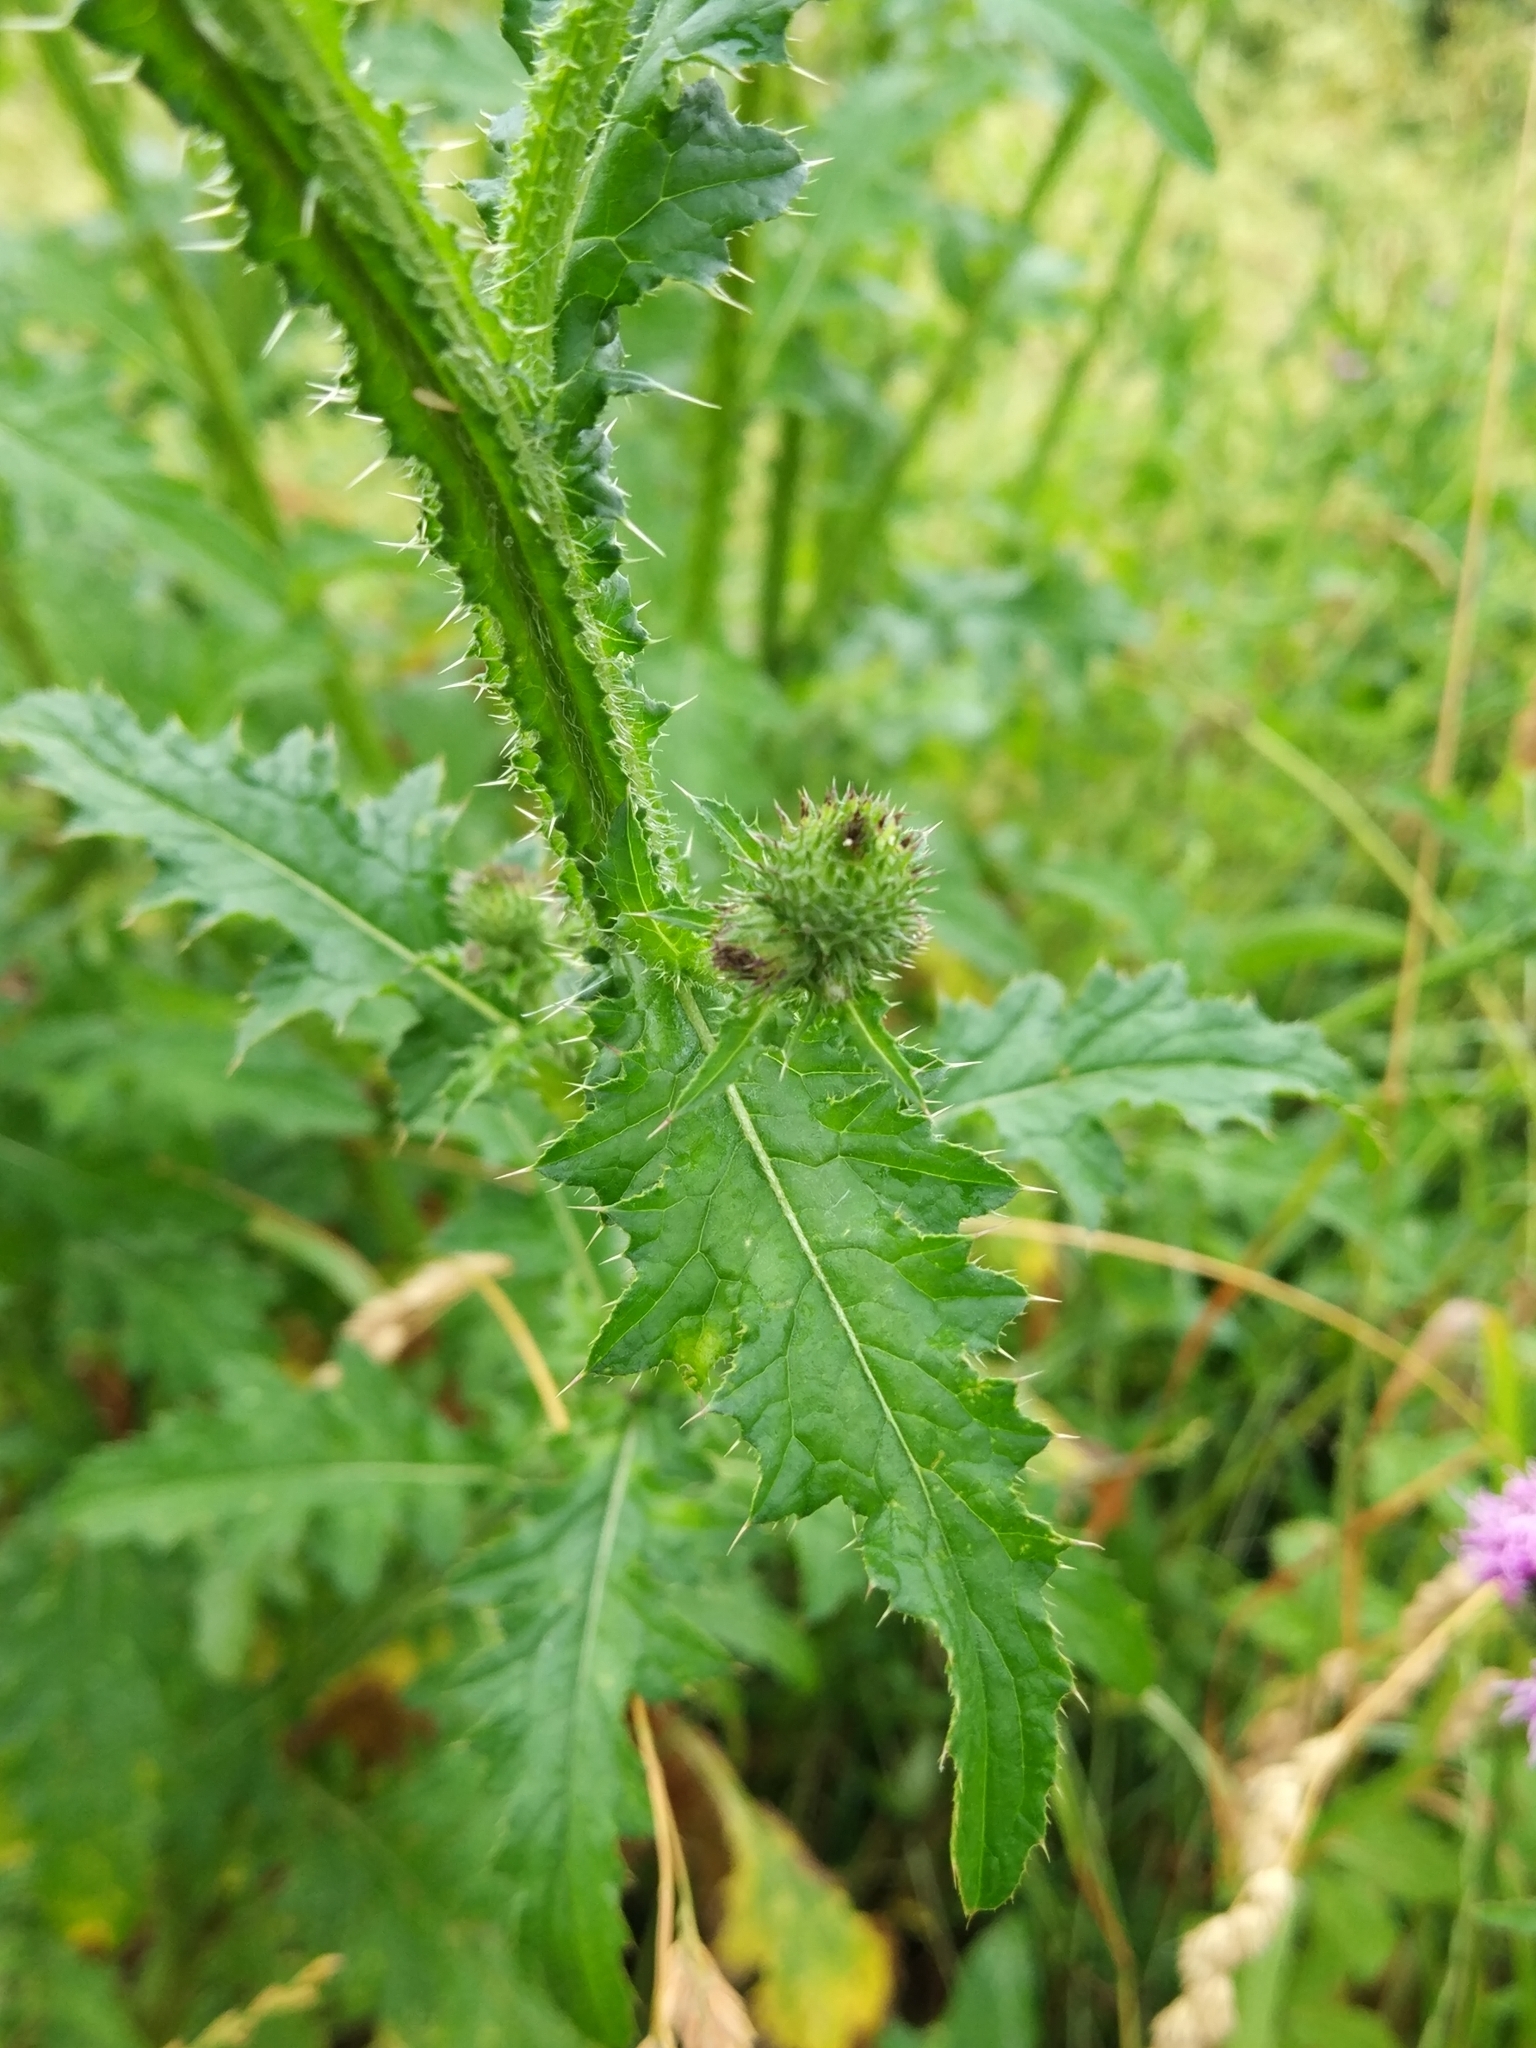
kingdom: Plantae
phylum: Tracheophyta
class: Magnoliopsida
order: Asterales
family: Asteraceae
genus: Carduus
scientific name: Carduus crispus
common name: Welted thistle
